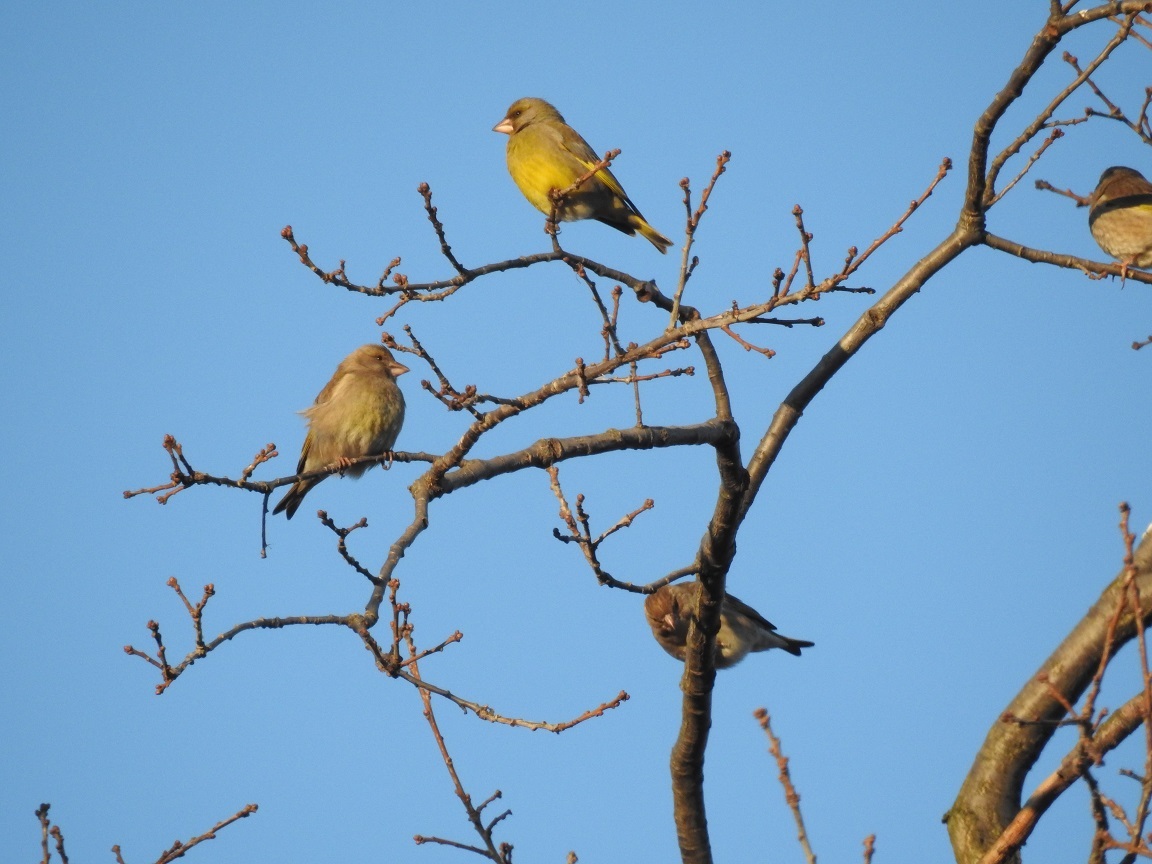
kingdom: Plantae
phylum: Tracheophyta
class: Liliopsida
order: Poales
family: Poaceae
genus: Chloris
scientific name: Chloris chloris
